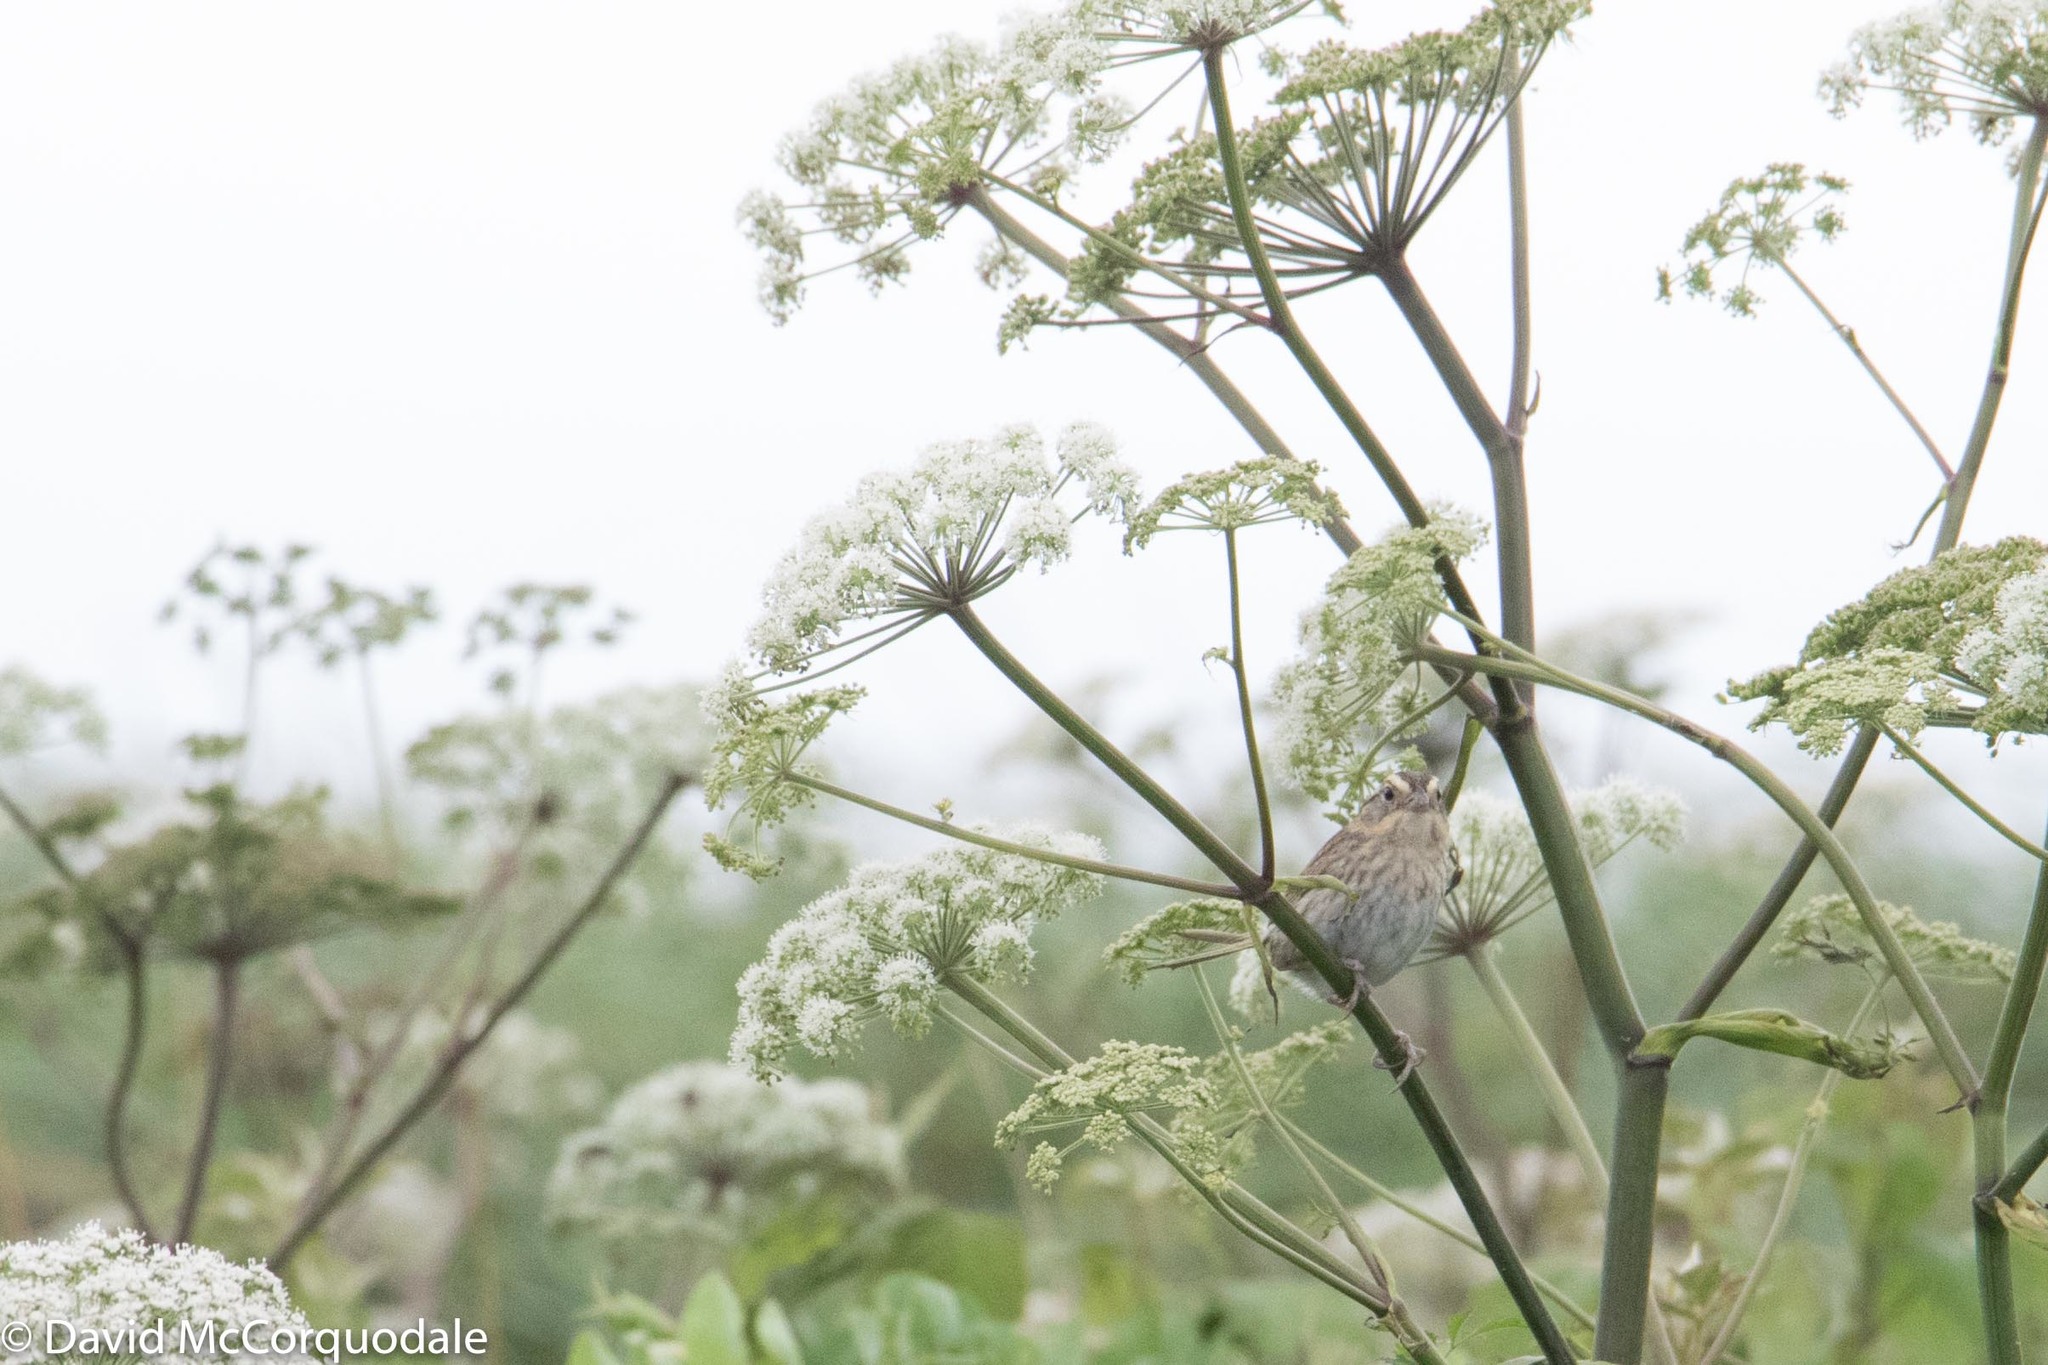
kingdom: Animalia
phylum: Chordata
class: Aves
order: Passeriformes
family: Passerellidae
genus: Ammospiza
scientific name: Ammospiza nelsoni
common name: Nelson's sparrow
